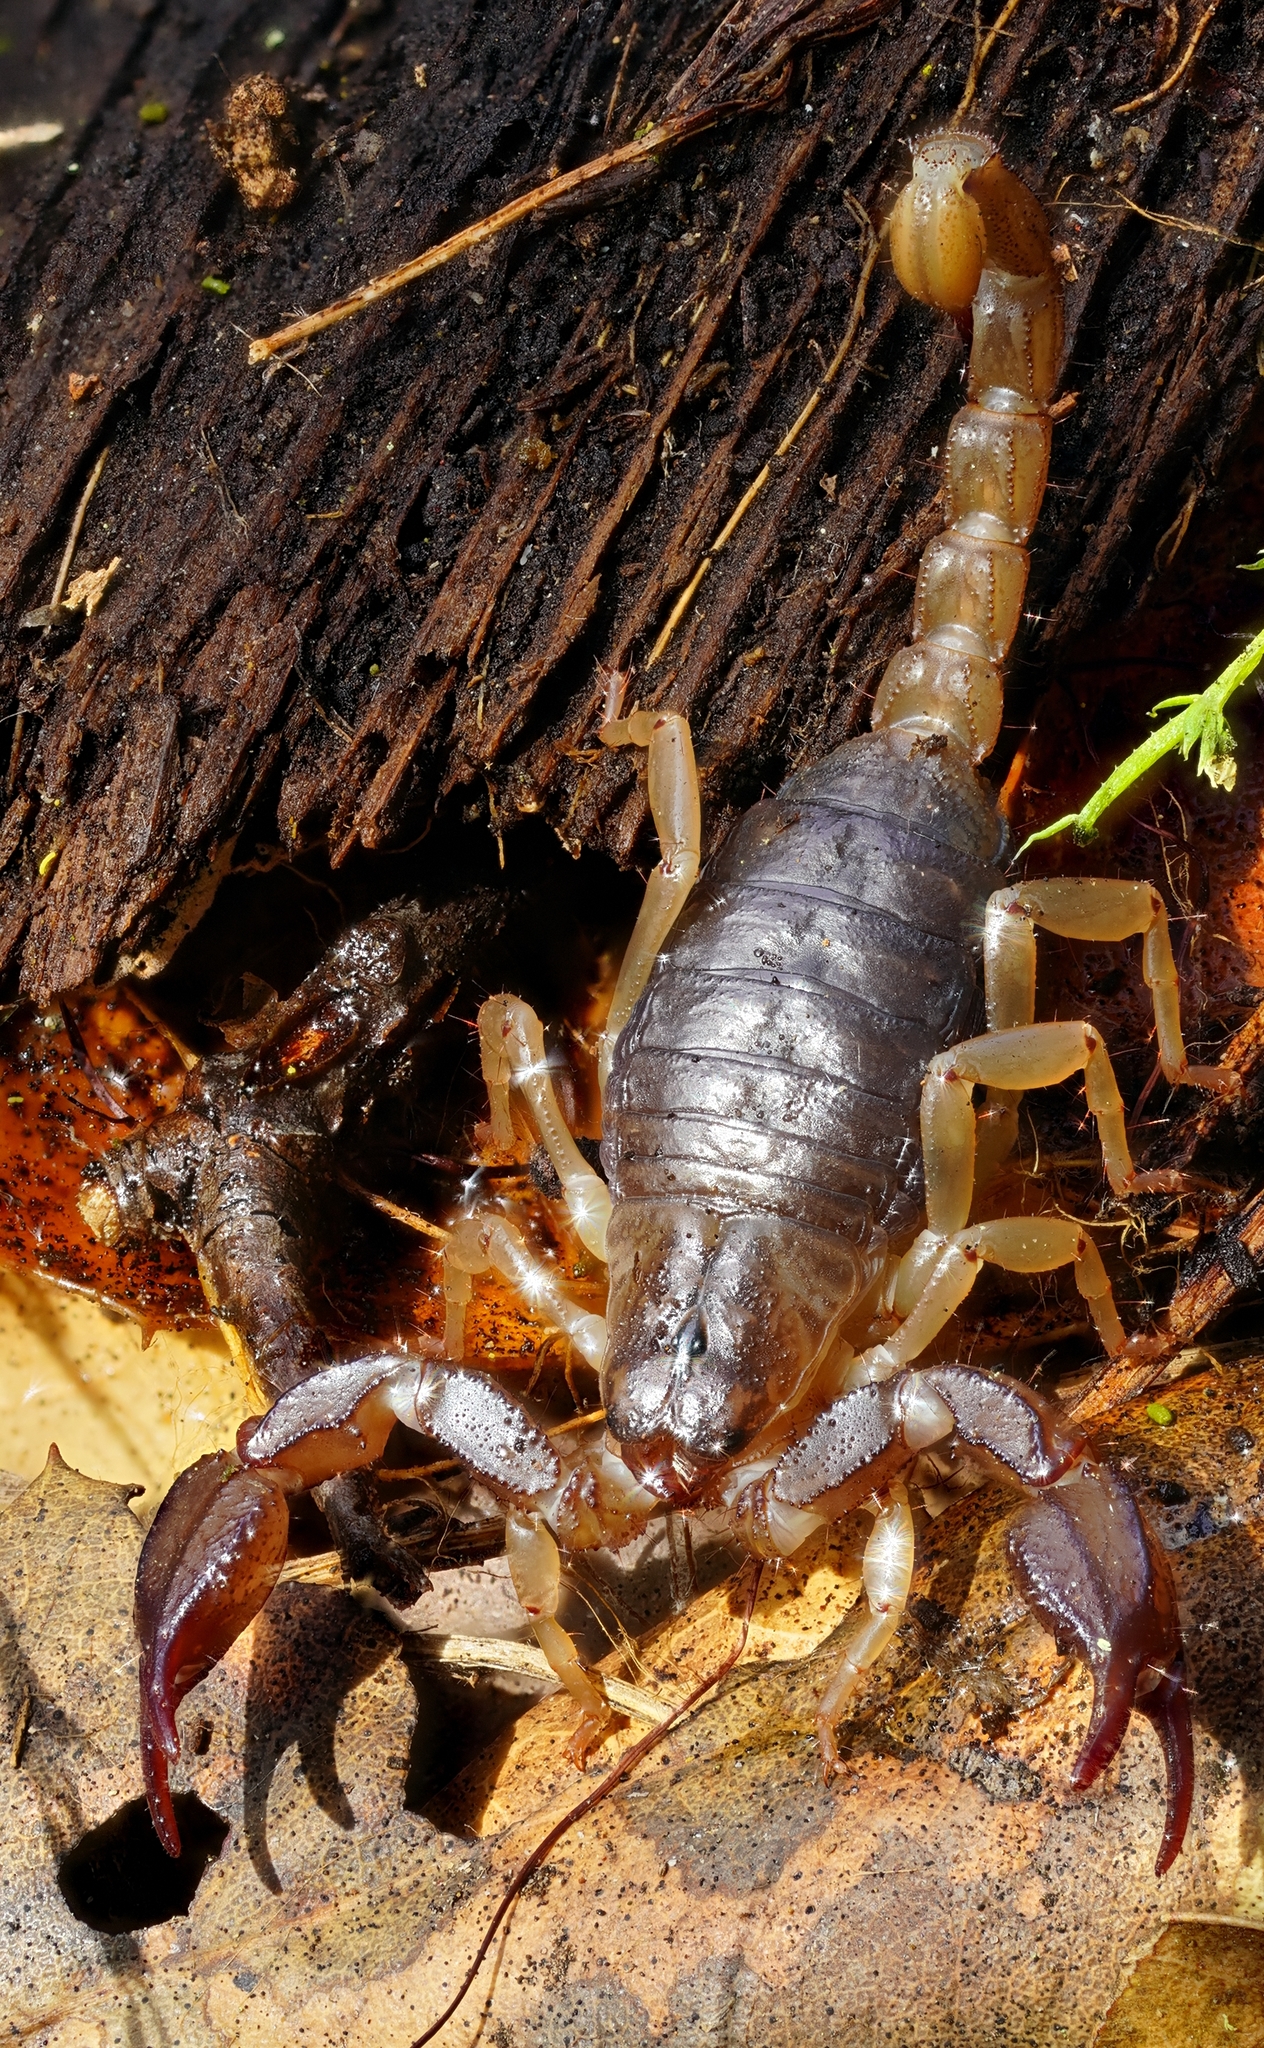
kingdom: Animalia
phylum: Arthropoda
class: Arachnida
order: Scorpiones
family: Chactidae
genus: Uroctonus
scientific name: Uroctonus mordax
